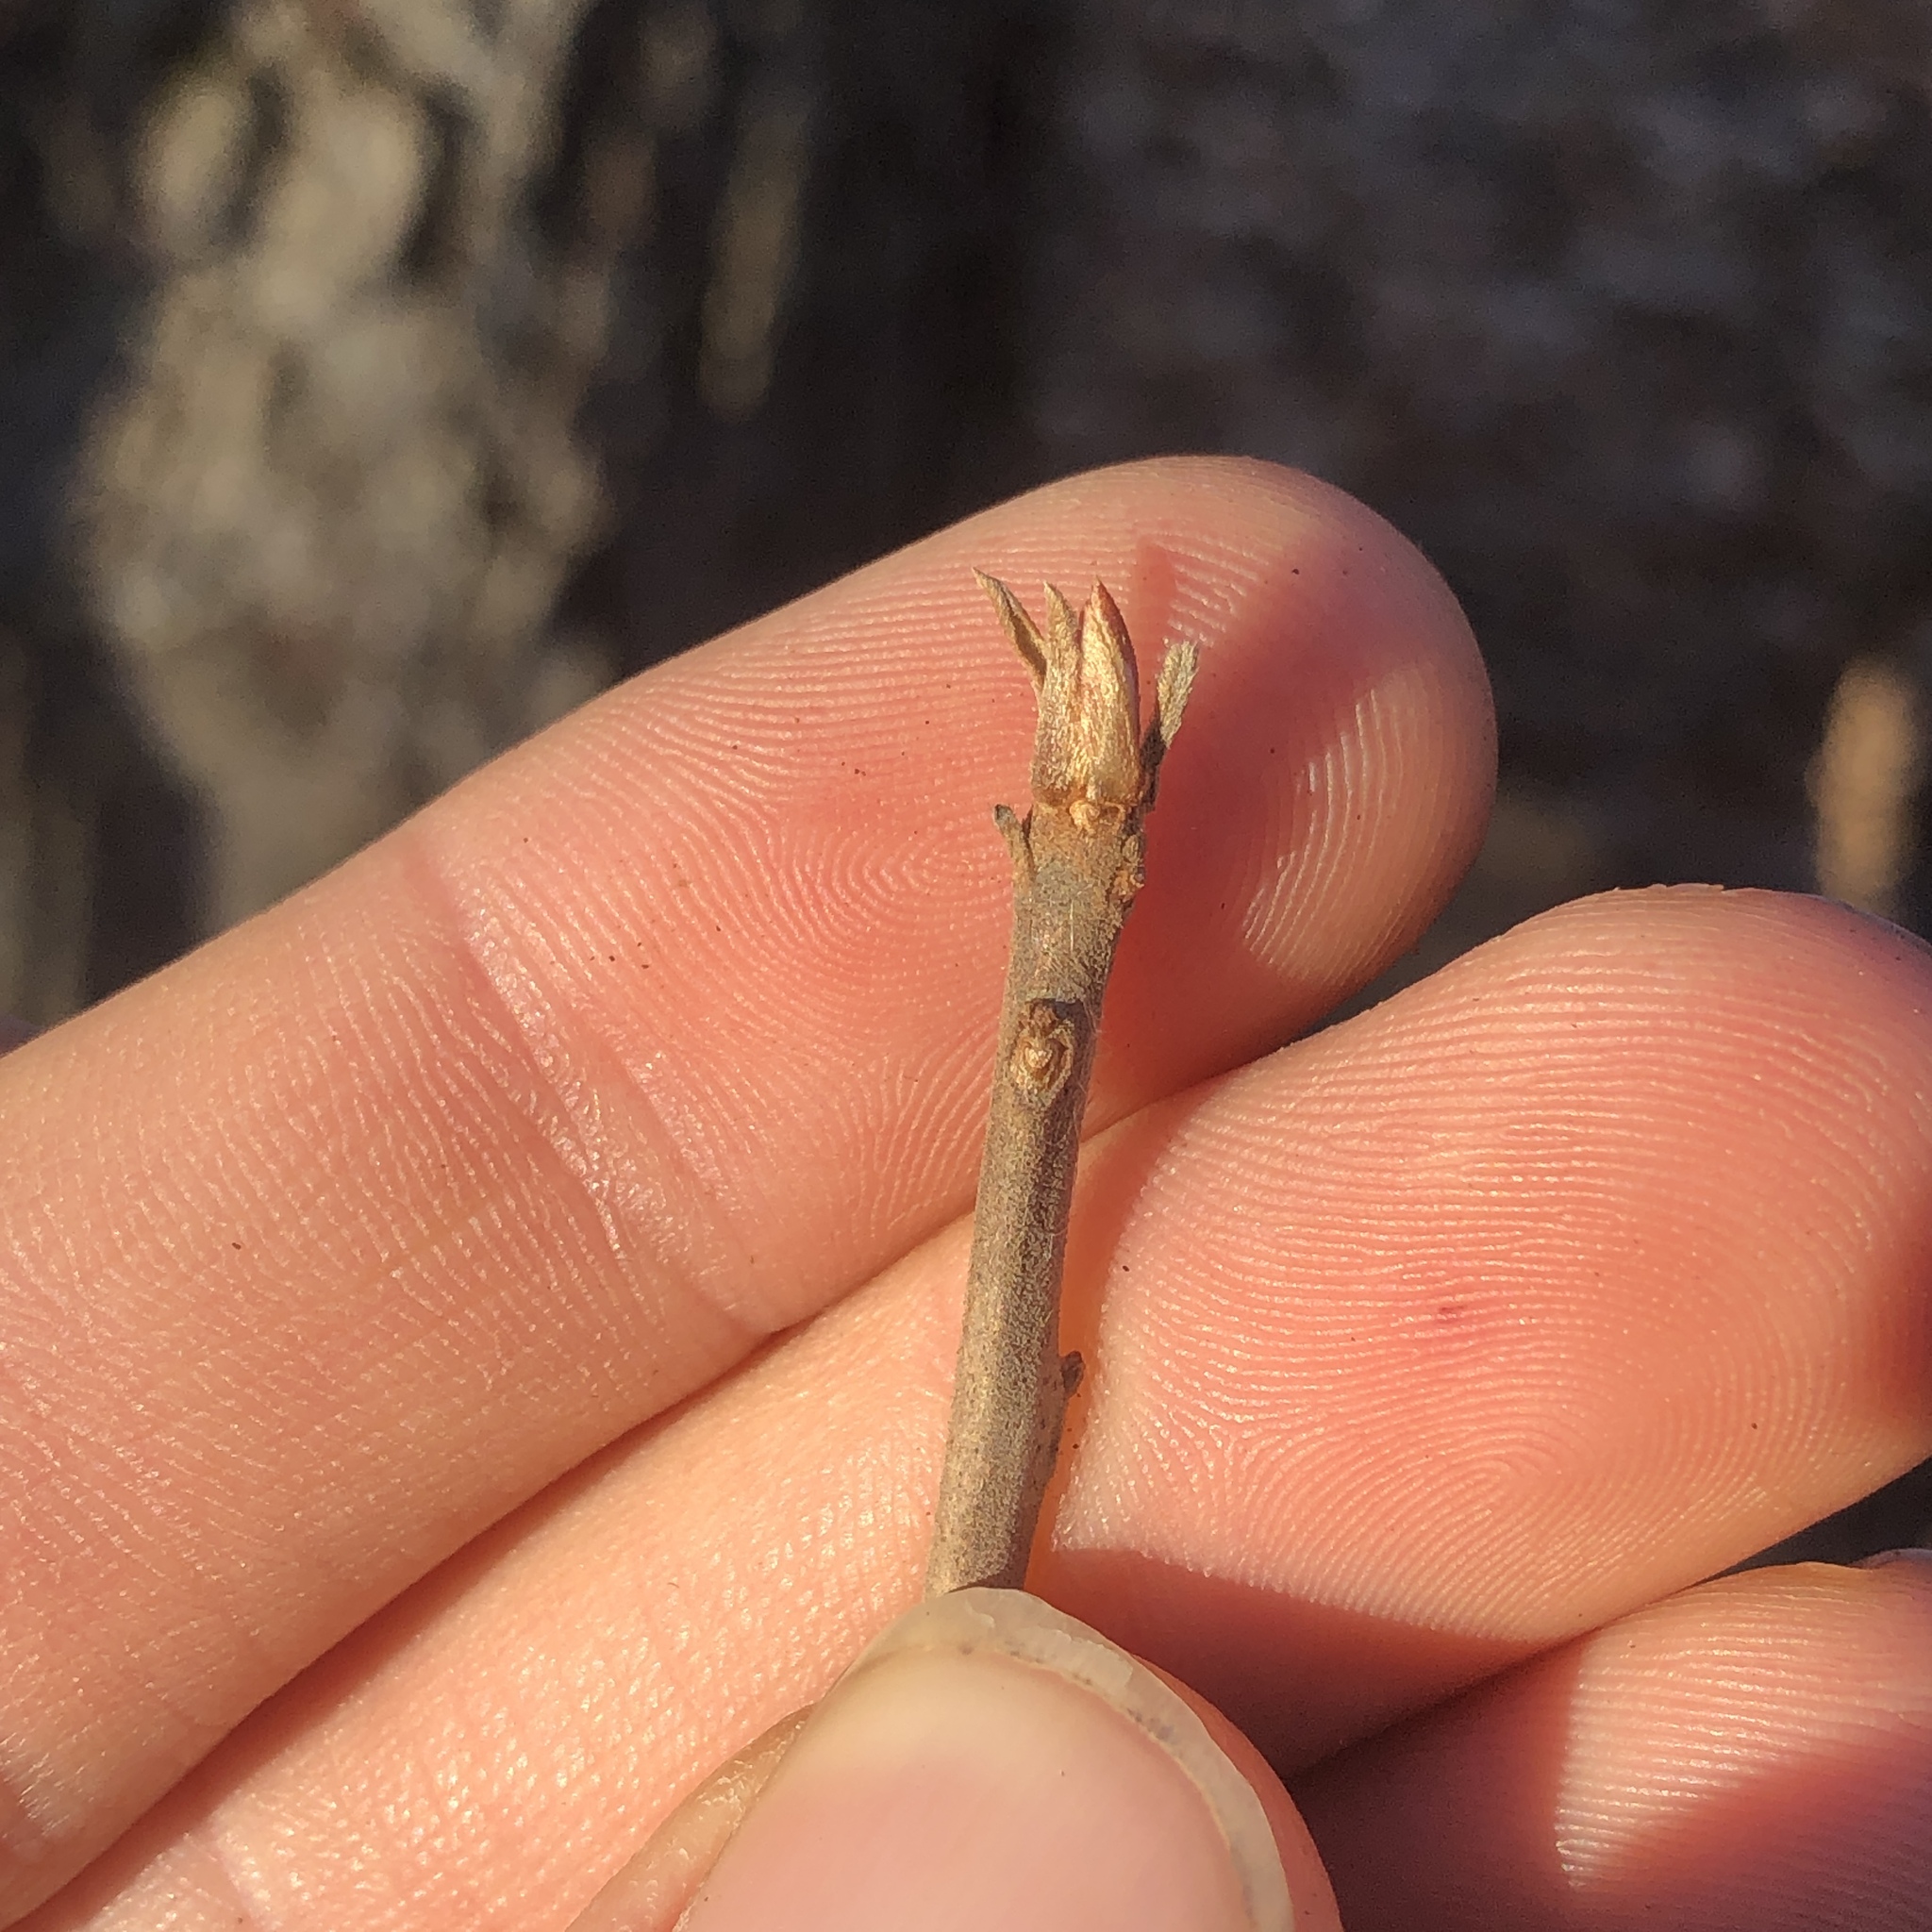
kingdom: Plantae
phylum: Tracheophyta
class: Magnoliopsida
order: Ericales
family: Clethraceae
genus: Clethra
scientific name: Clethra alnifolia
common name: Sweet pepperbush
